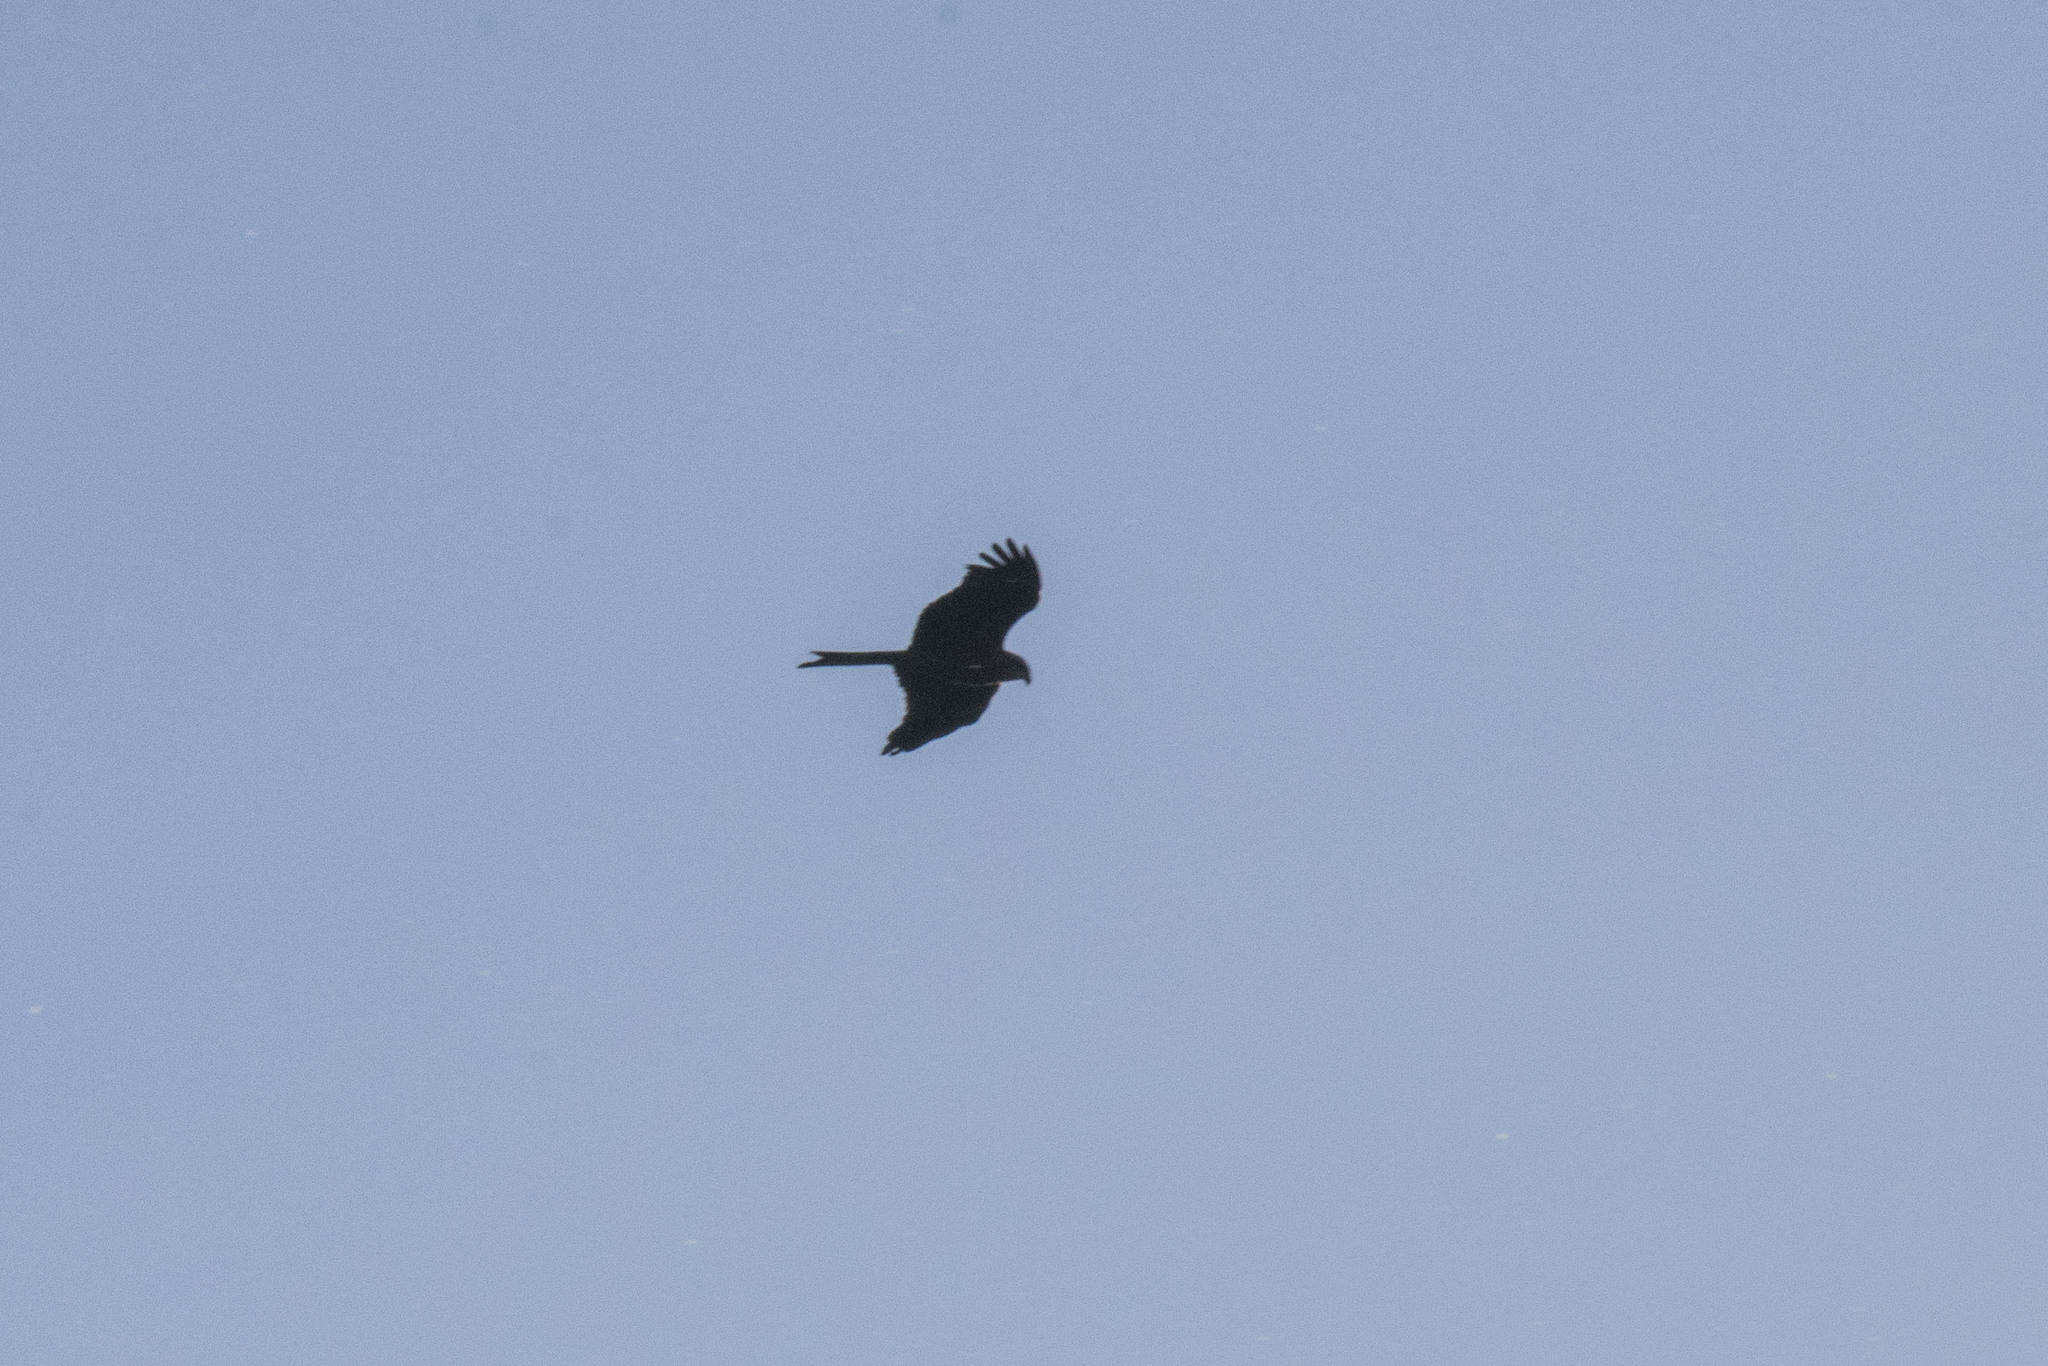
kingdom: Animalia
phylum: Chordata
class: Aves
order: Accipitriformes
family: Accipitridae
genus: Milvus
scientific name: Milvus migrans
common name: Black kite
